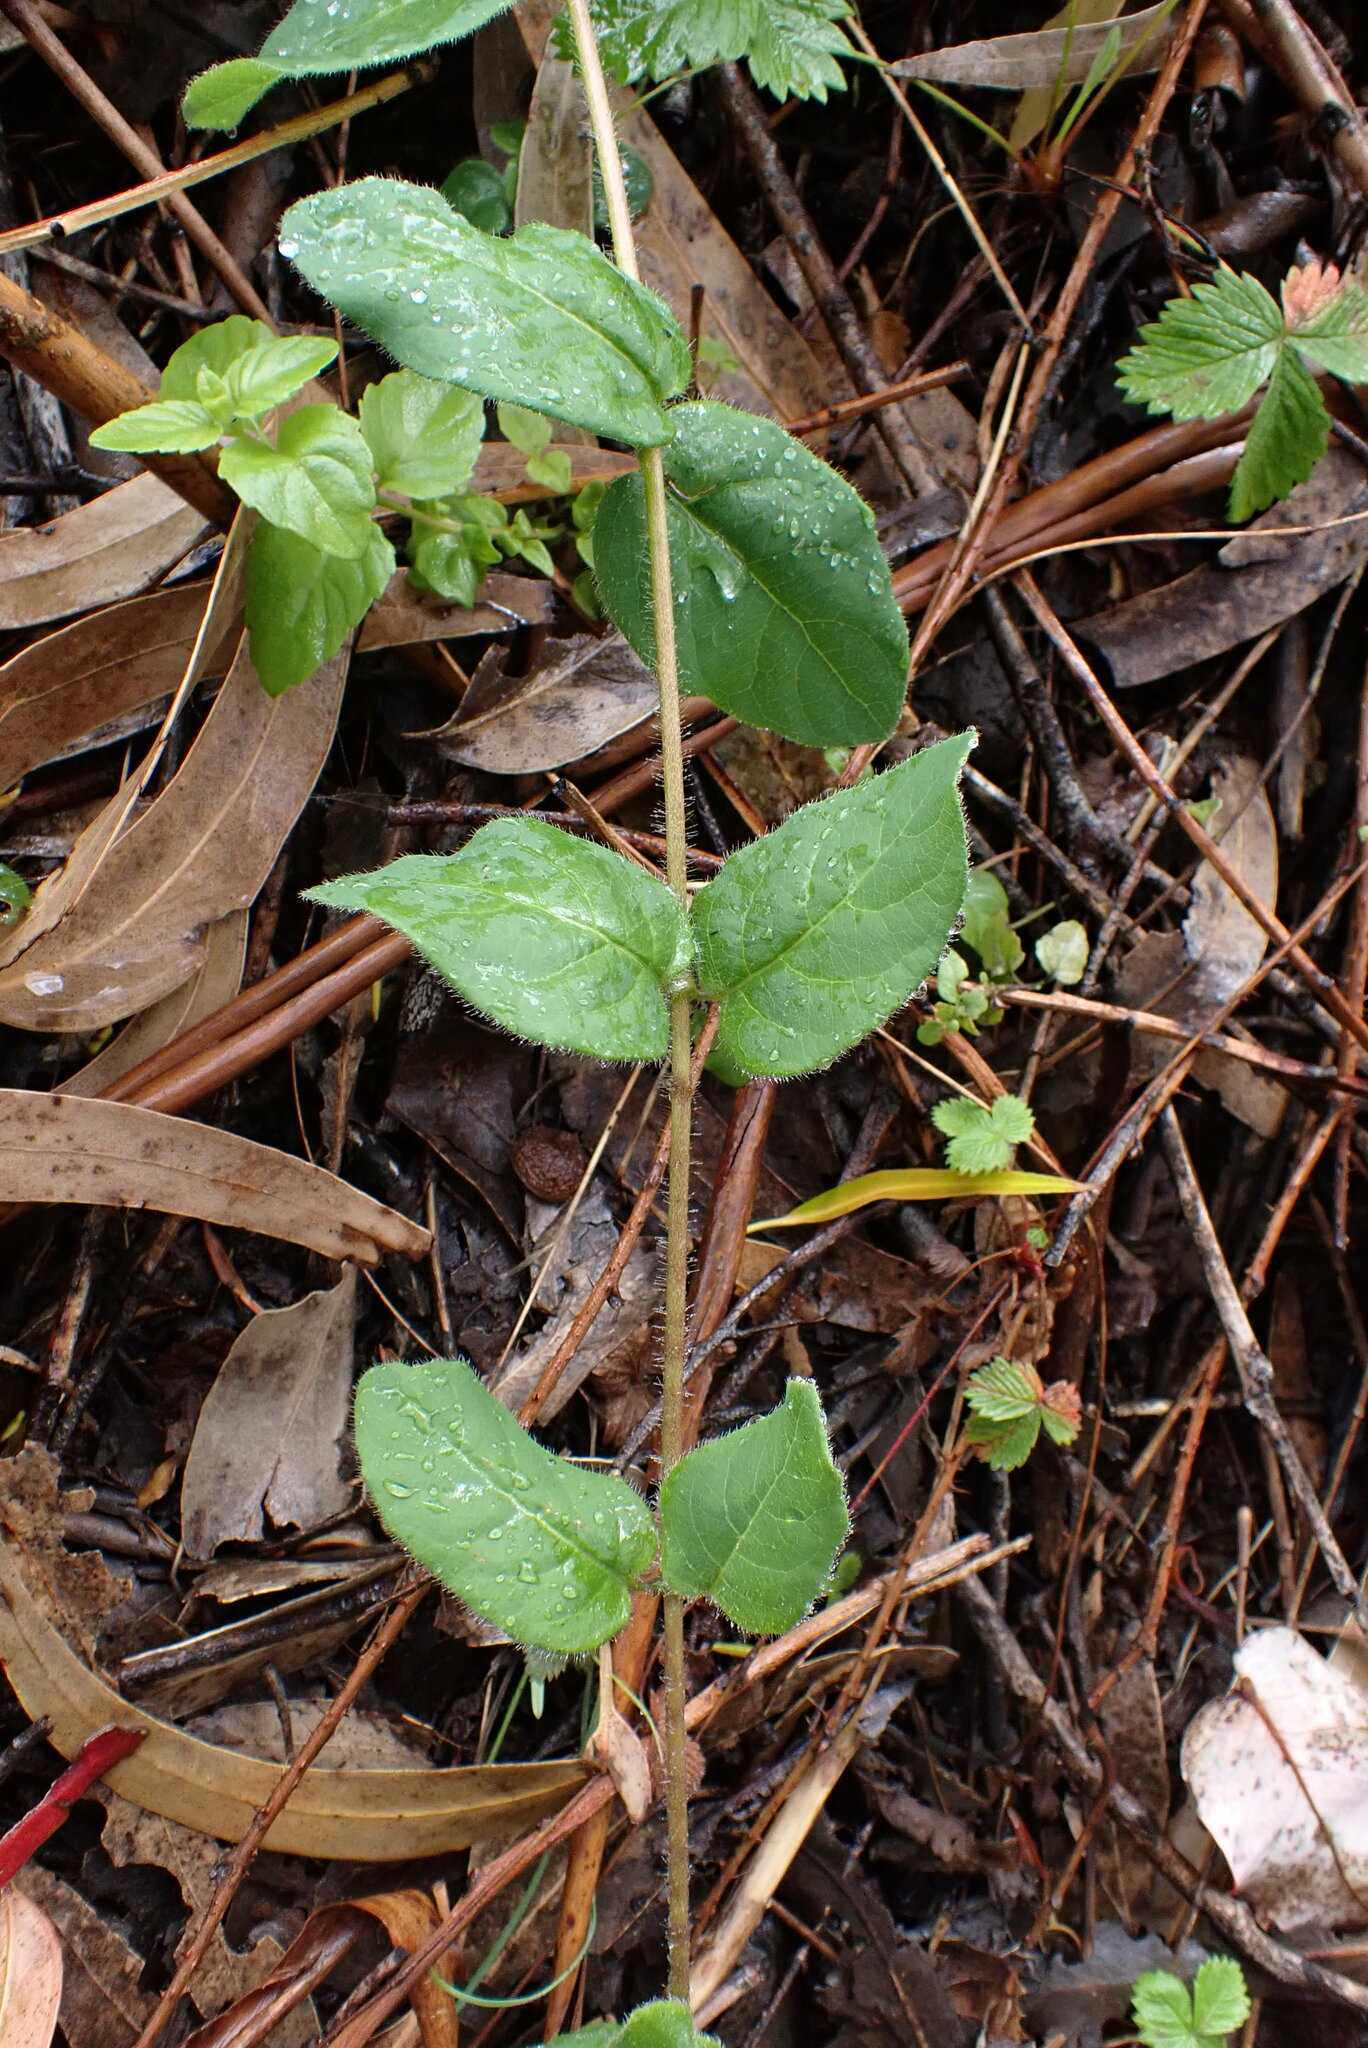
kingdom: Plantae
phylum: Tracheophyta
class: Magnoliopsida
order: Dipsacales
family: Caprifoliaceae
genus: Lonicera
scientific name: Lonicera hispidula
